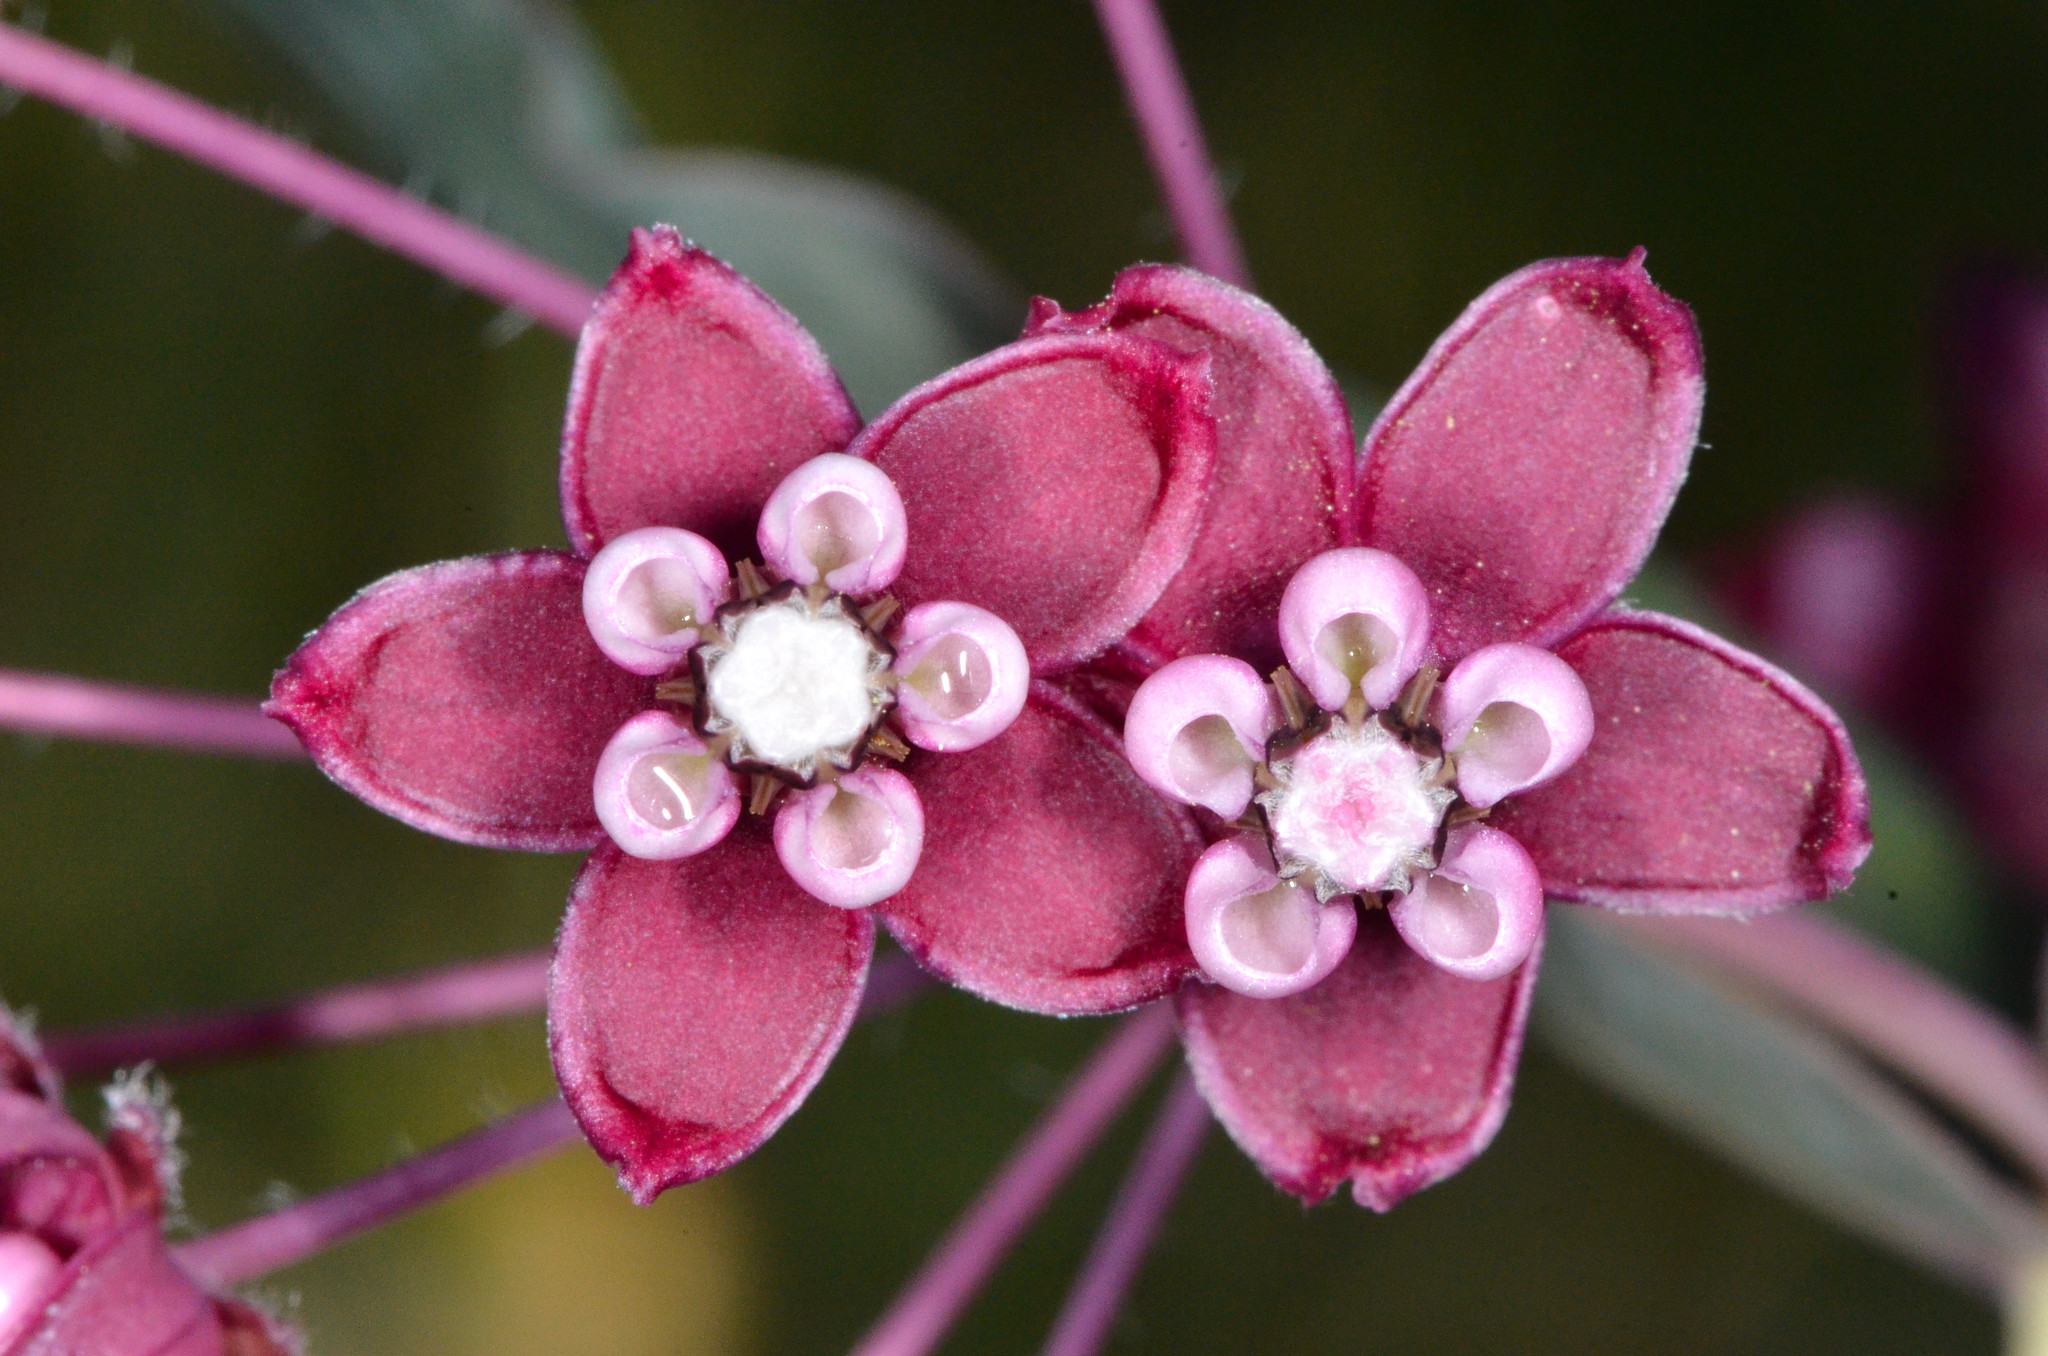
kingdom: Plantae
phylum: Tracheophyta
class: Magnoliopsida
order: Gentianales
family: Apocynaceae
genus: Asclepias
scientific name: Asclepias cordifolia
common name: Purple milkweed
